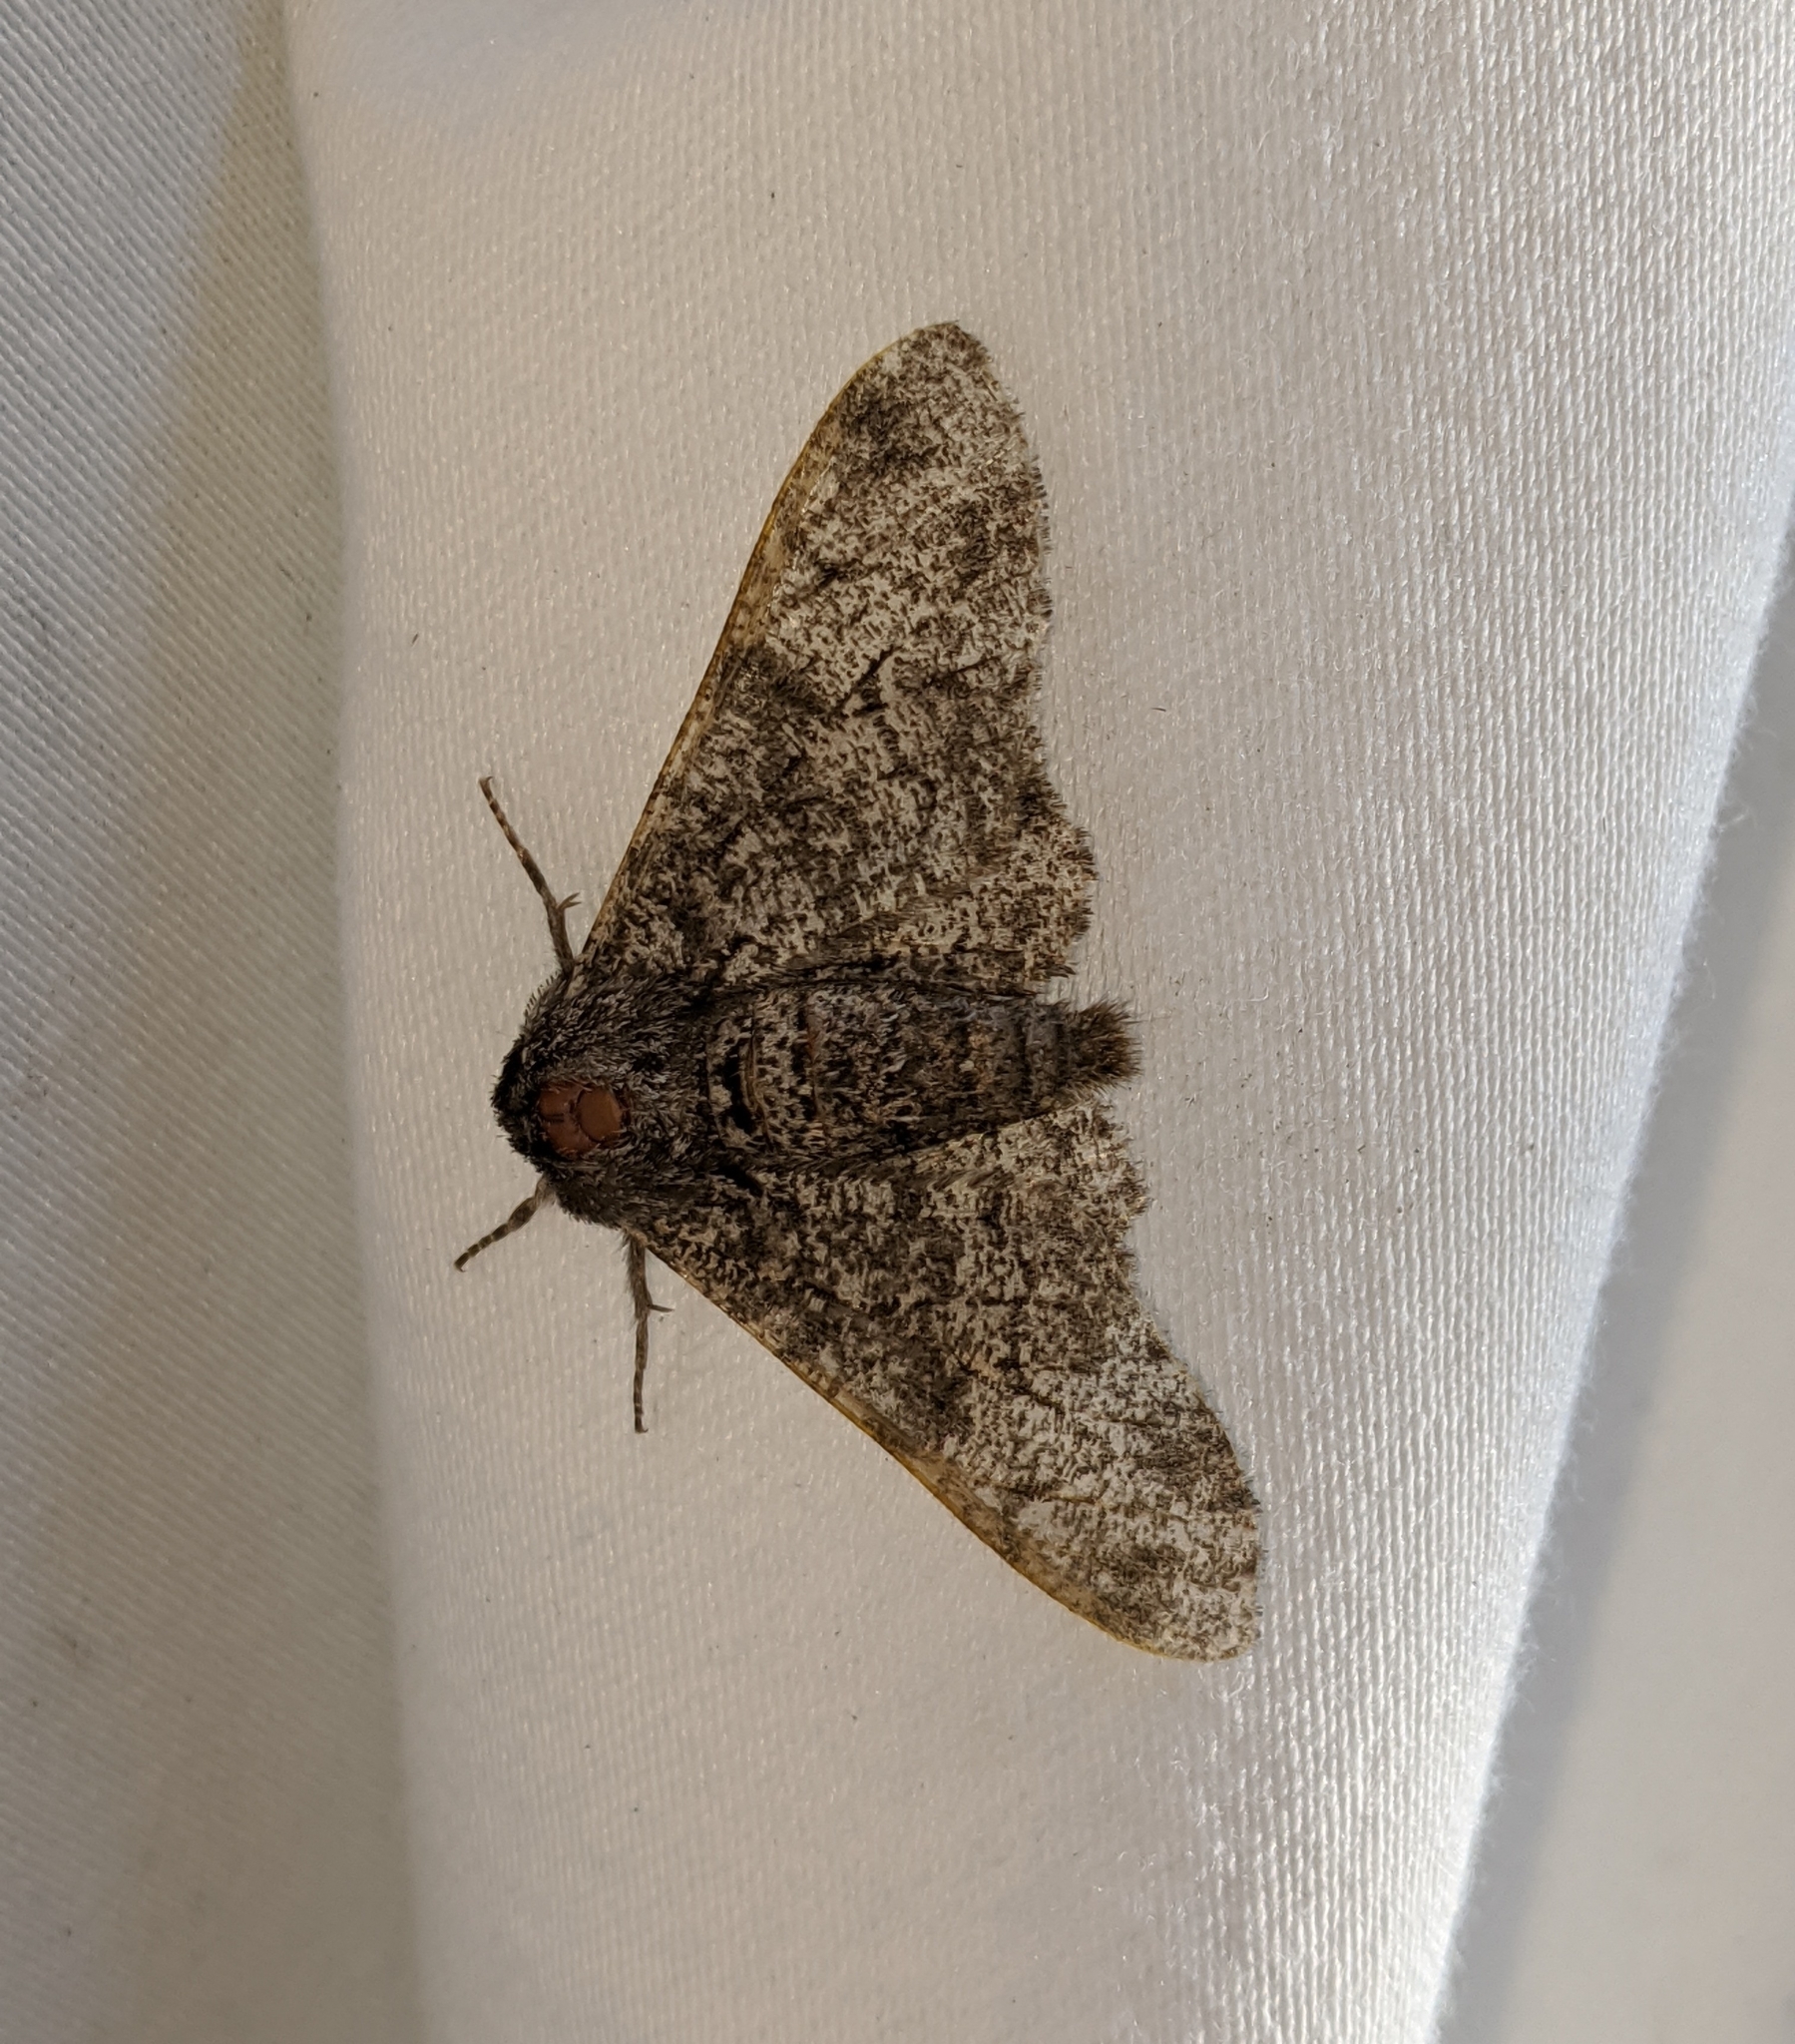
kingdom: Animalia
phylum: Arthropoda
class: Insecta
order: Lepidoptera
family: Geometridae
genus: Biston
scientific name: Biston betularia
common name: Peppered moth
